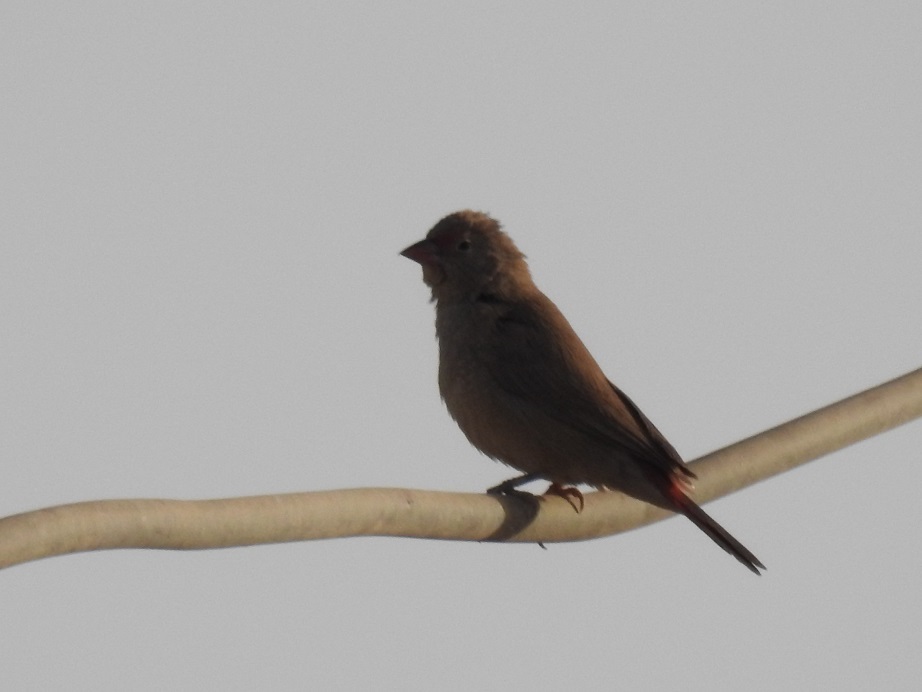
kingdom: Animalia
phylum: Chordata
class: Aves
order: Passeriformes
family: Estrildidae
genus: Lagonosticta
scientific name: Lagonosticta senegala
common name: Red-billed firefinch
